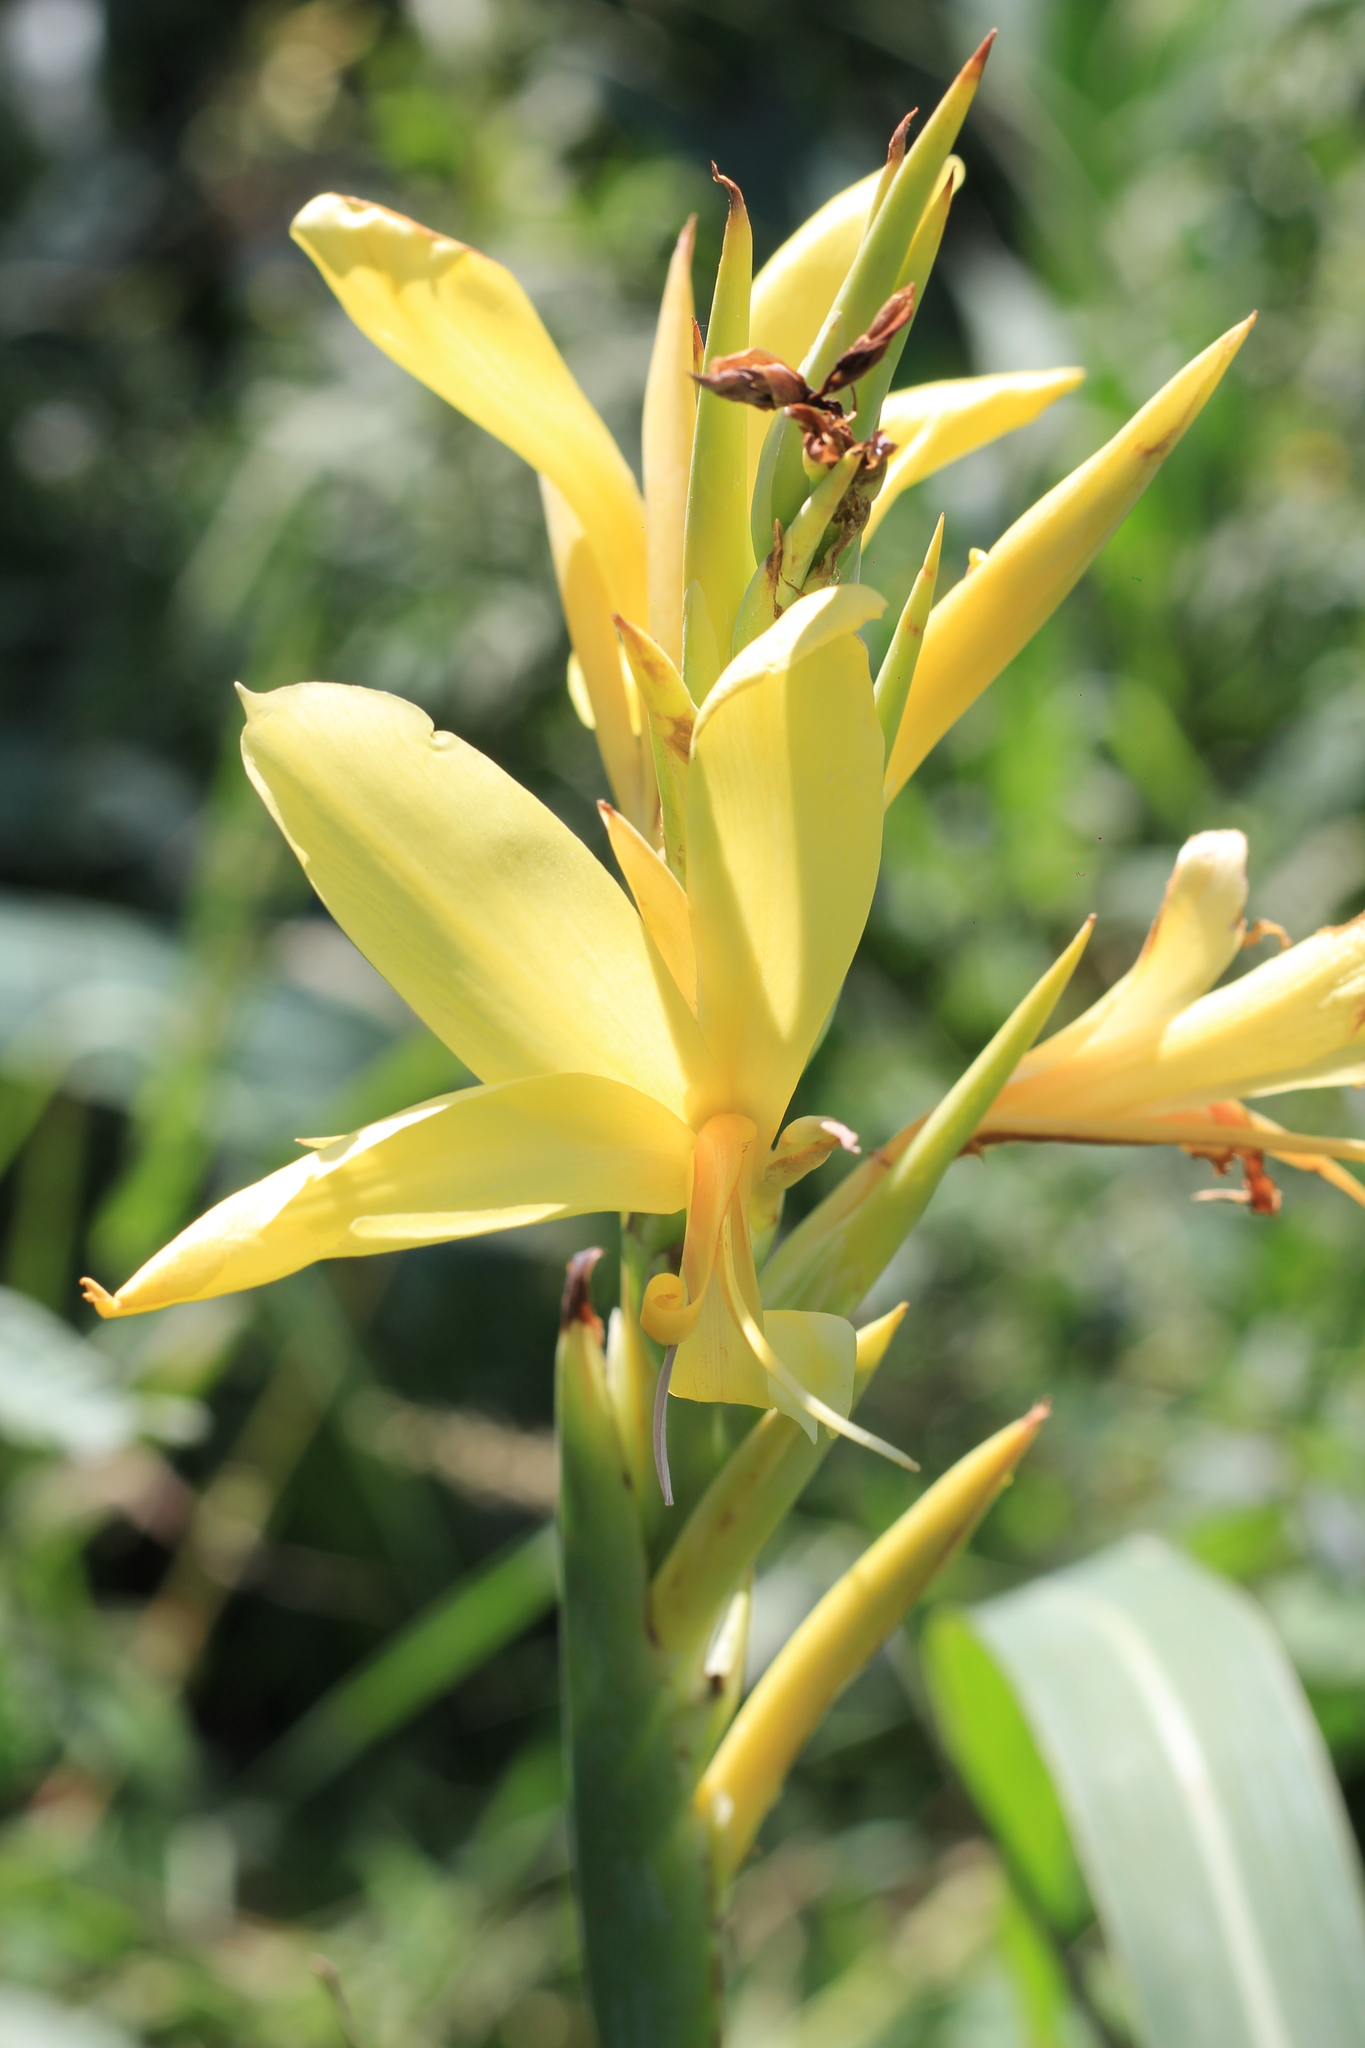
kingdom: Plantae
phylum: Tracheophyta
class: Liliopsida
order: Zingiberales
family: Cannaceae
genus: Canna
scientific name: Canna glauca
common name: Louisiana canna
